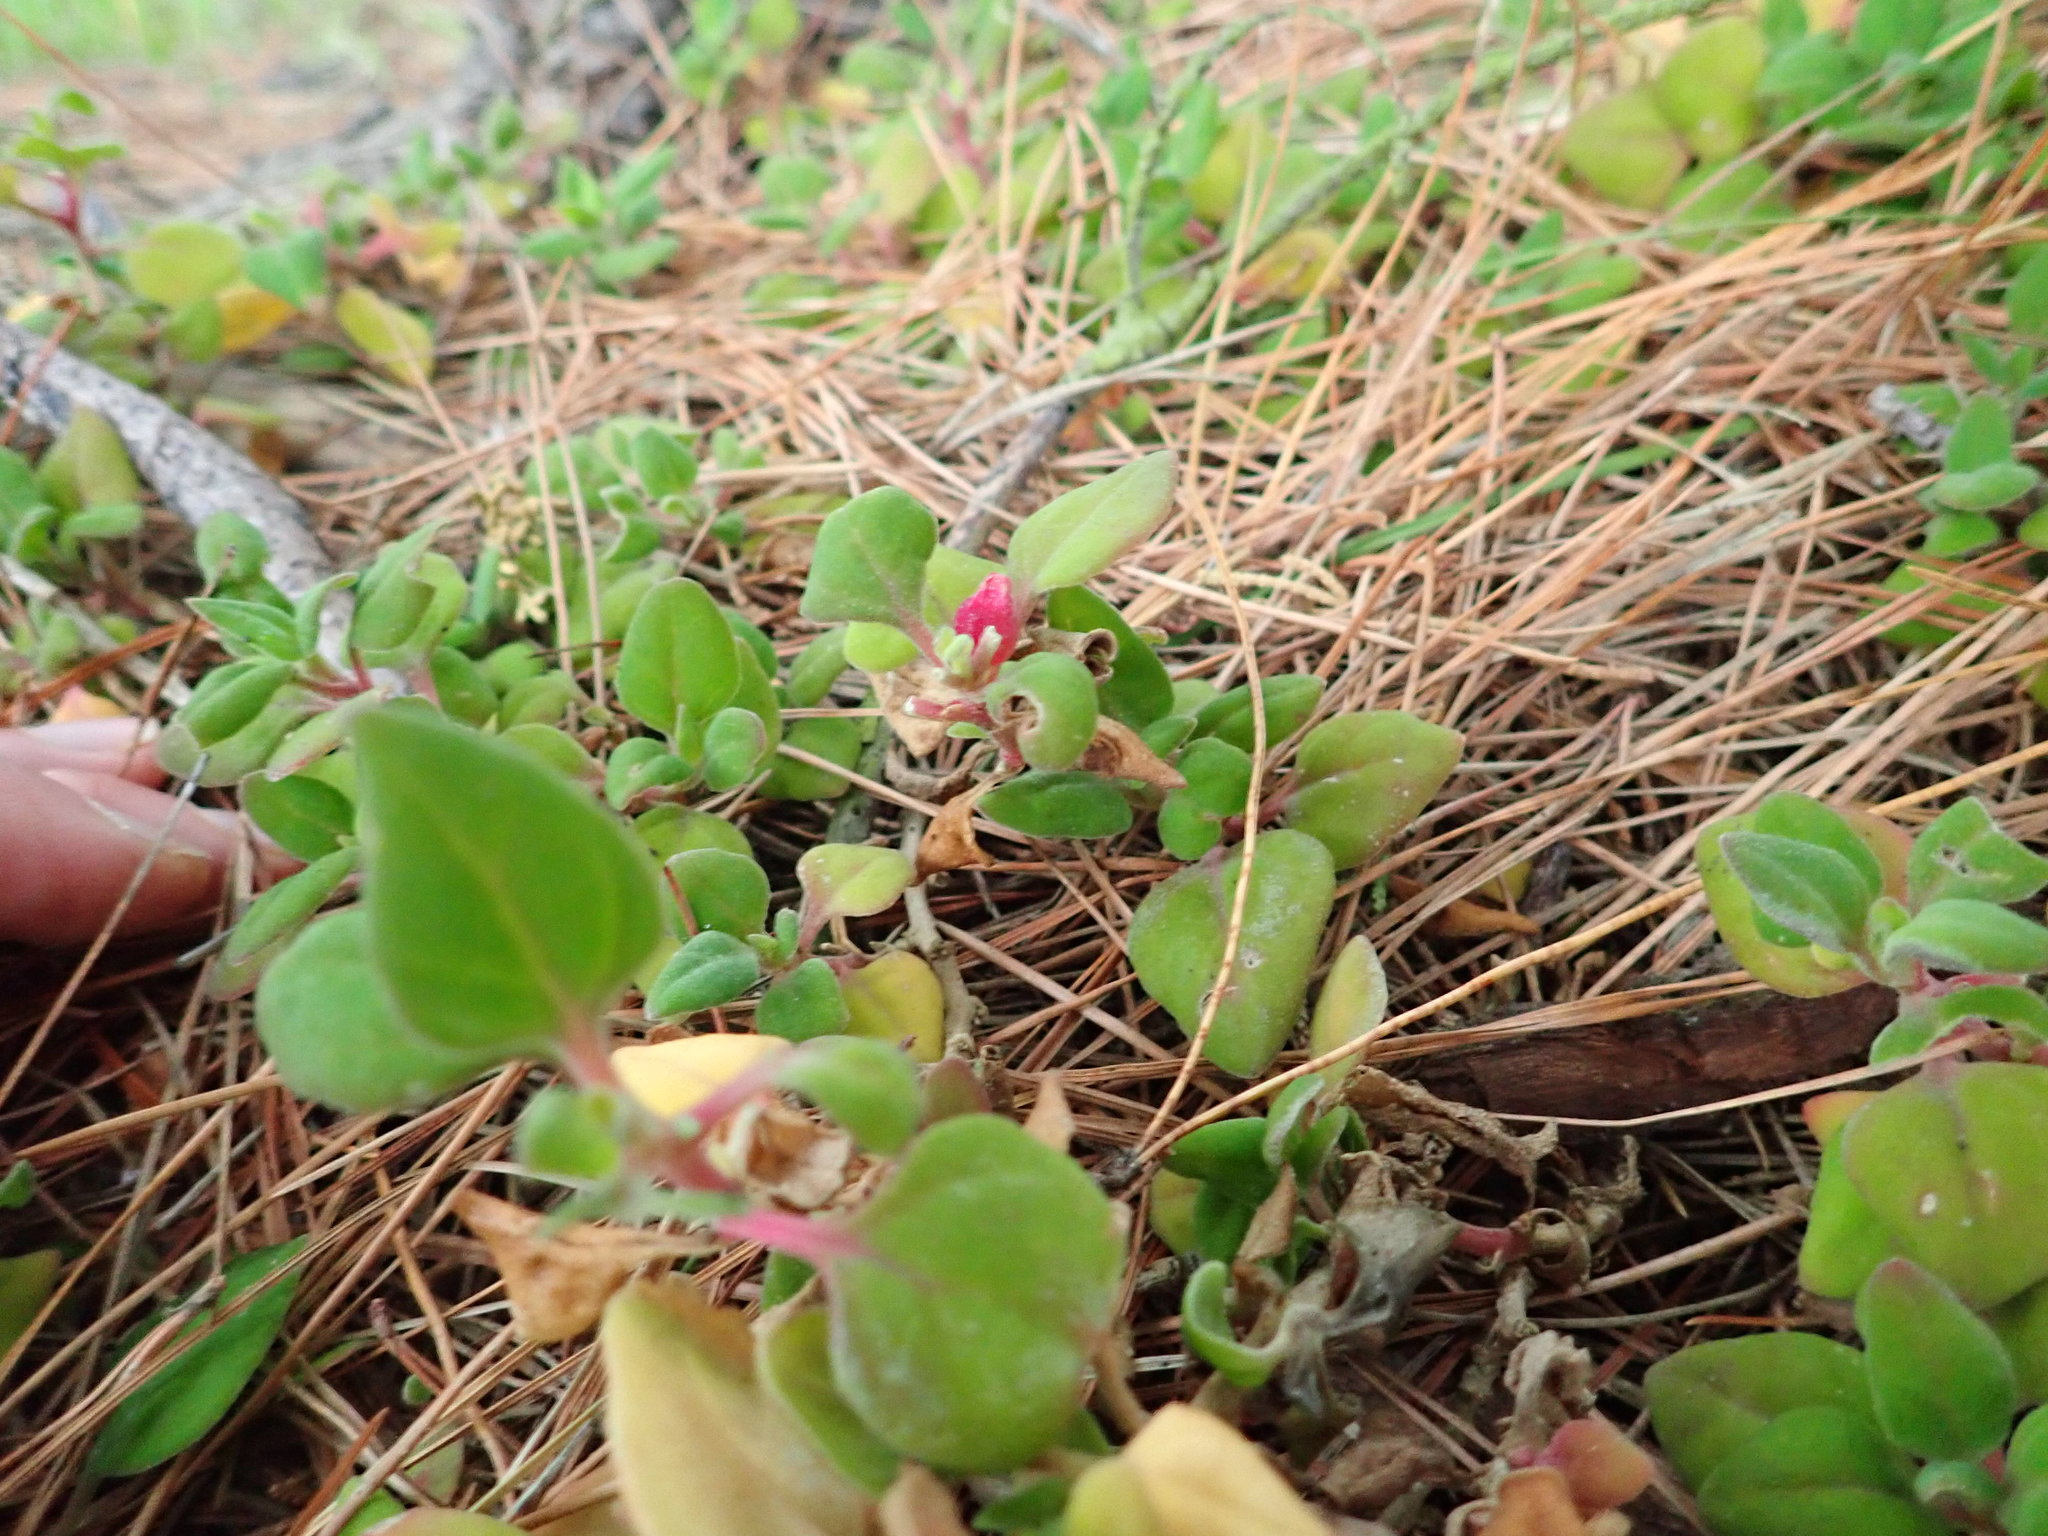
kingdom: Plantae
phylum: Tracheophyta
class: Magnoliopsida
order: Caryophyllales
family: Aizoaceae
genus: Tetragonia
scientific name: Tetragonia implexicoma
